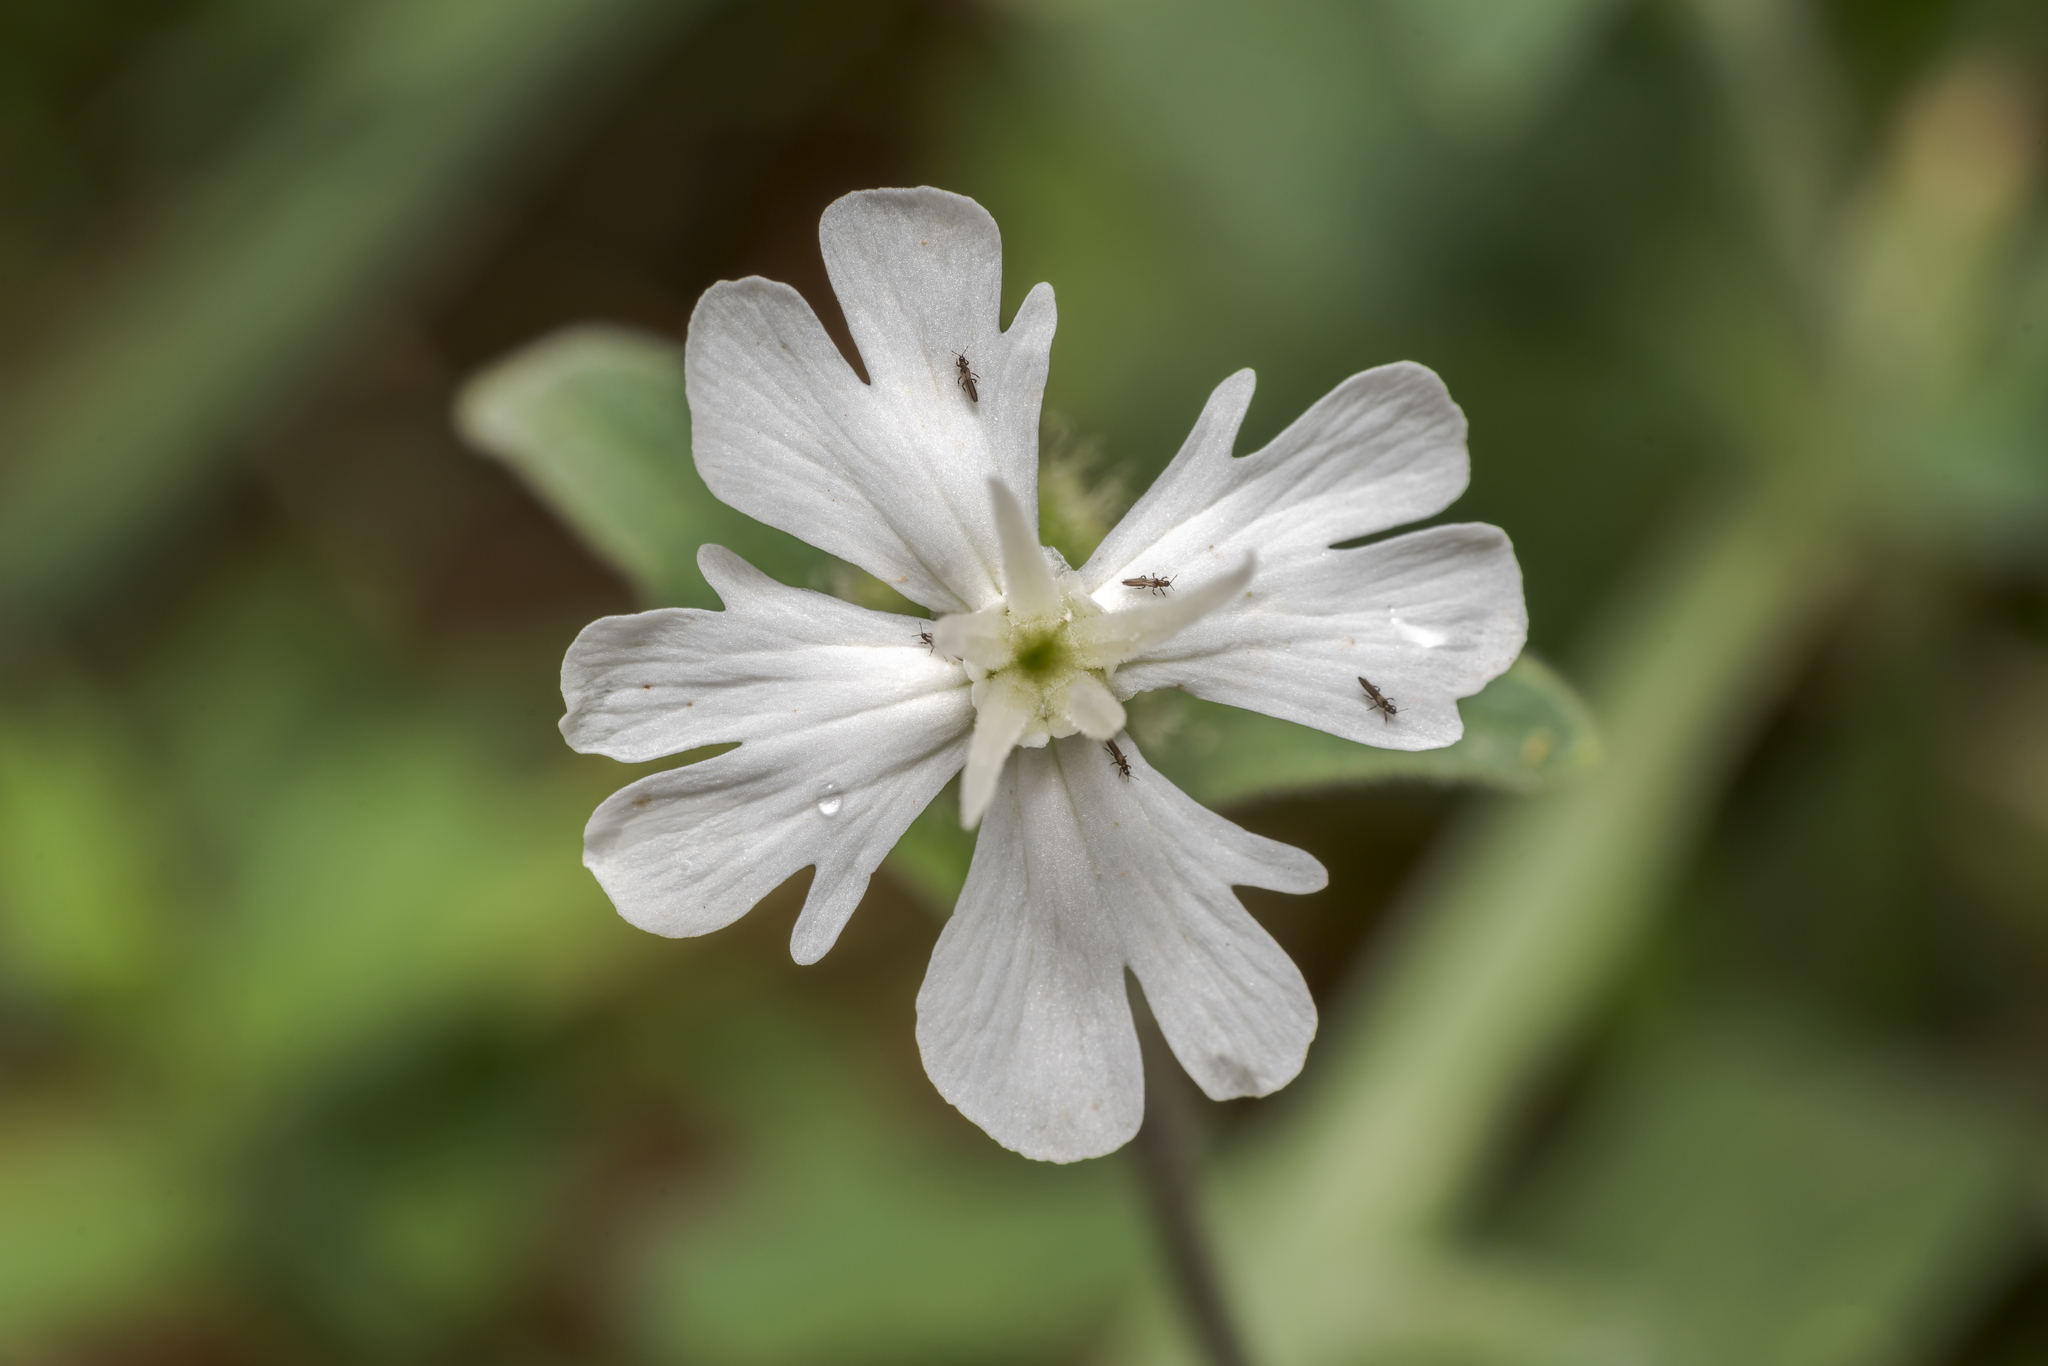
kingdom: Plantae
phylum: Tracheophyta
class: Magnoliopsida
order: Caryophyllales
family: Caryophyllaceae
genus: Silene
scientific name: Silene latifolia
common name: White campion
